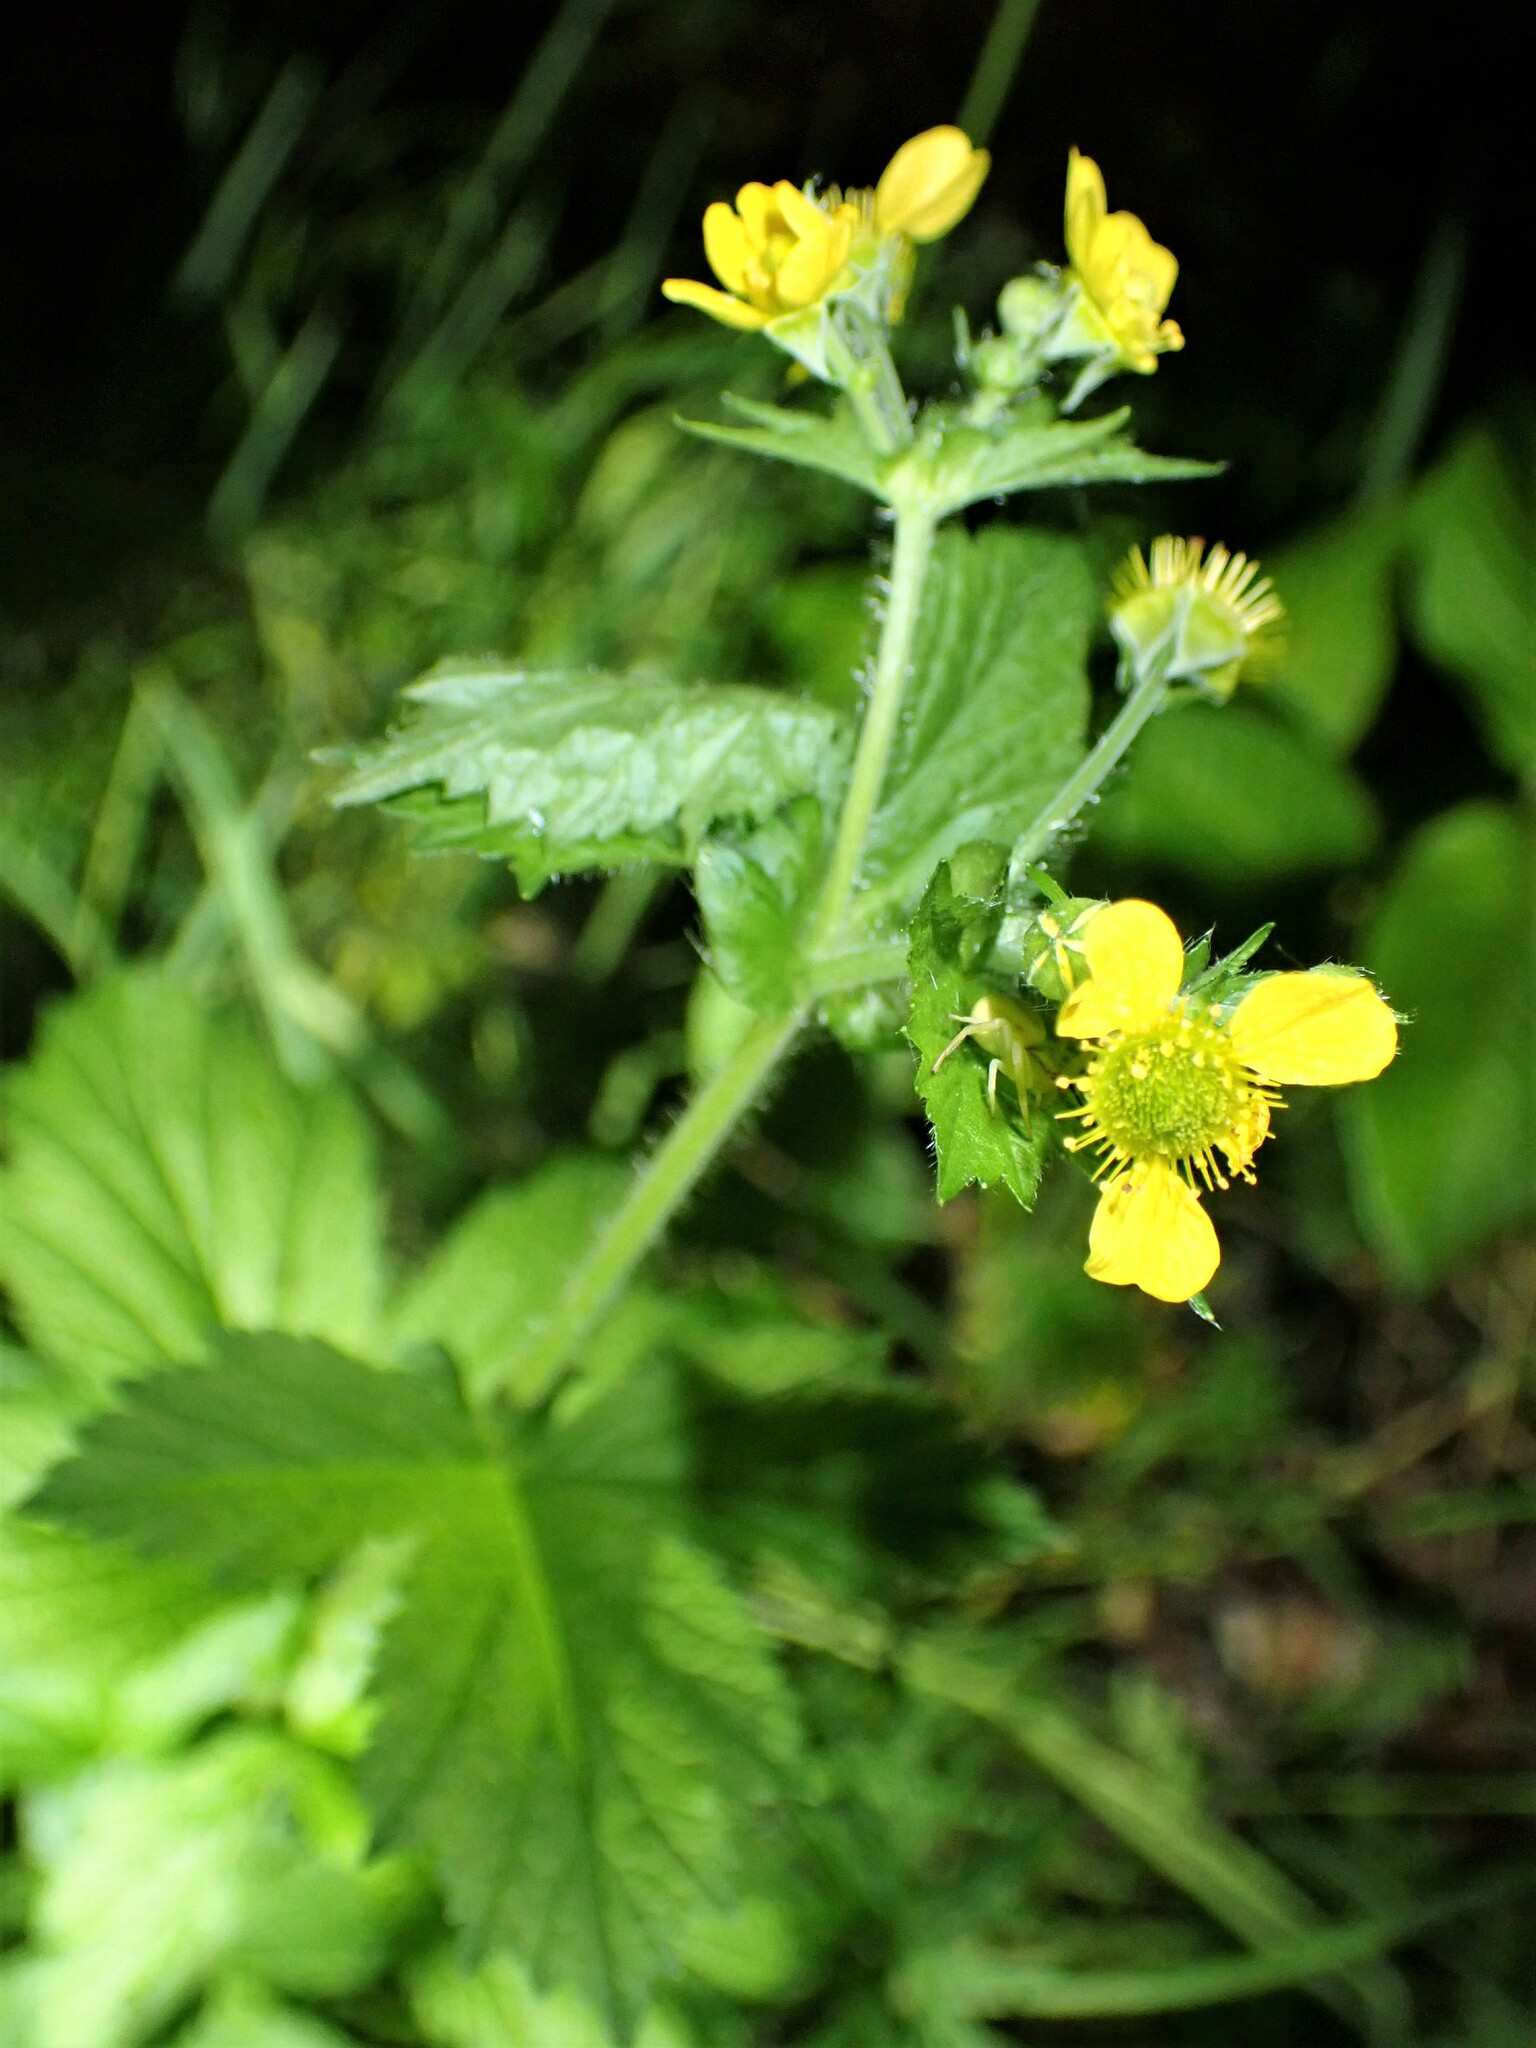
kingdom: Plantae
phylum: Tracheophyta
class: Magnoliopsida
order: Rosales
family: Rosaceae
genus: Geum
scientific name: Geum macrophyllum
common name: Large-leaved avens
